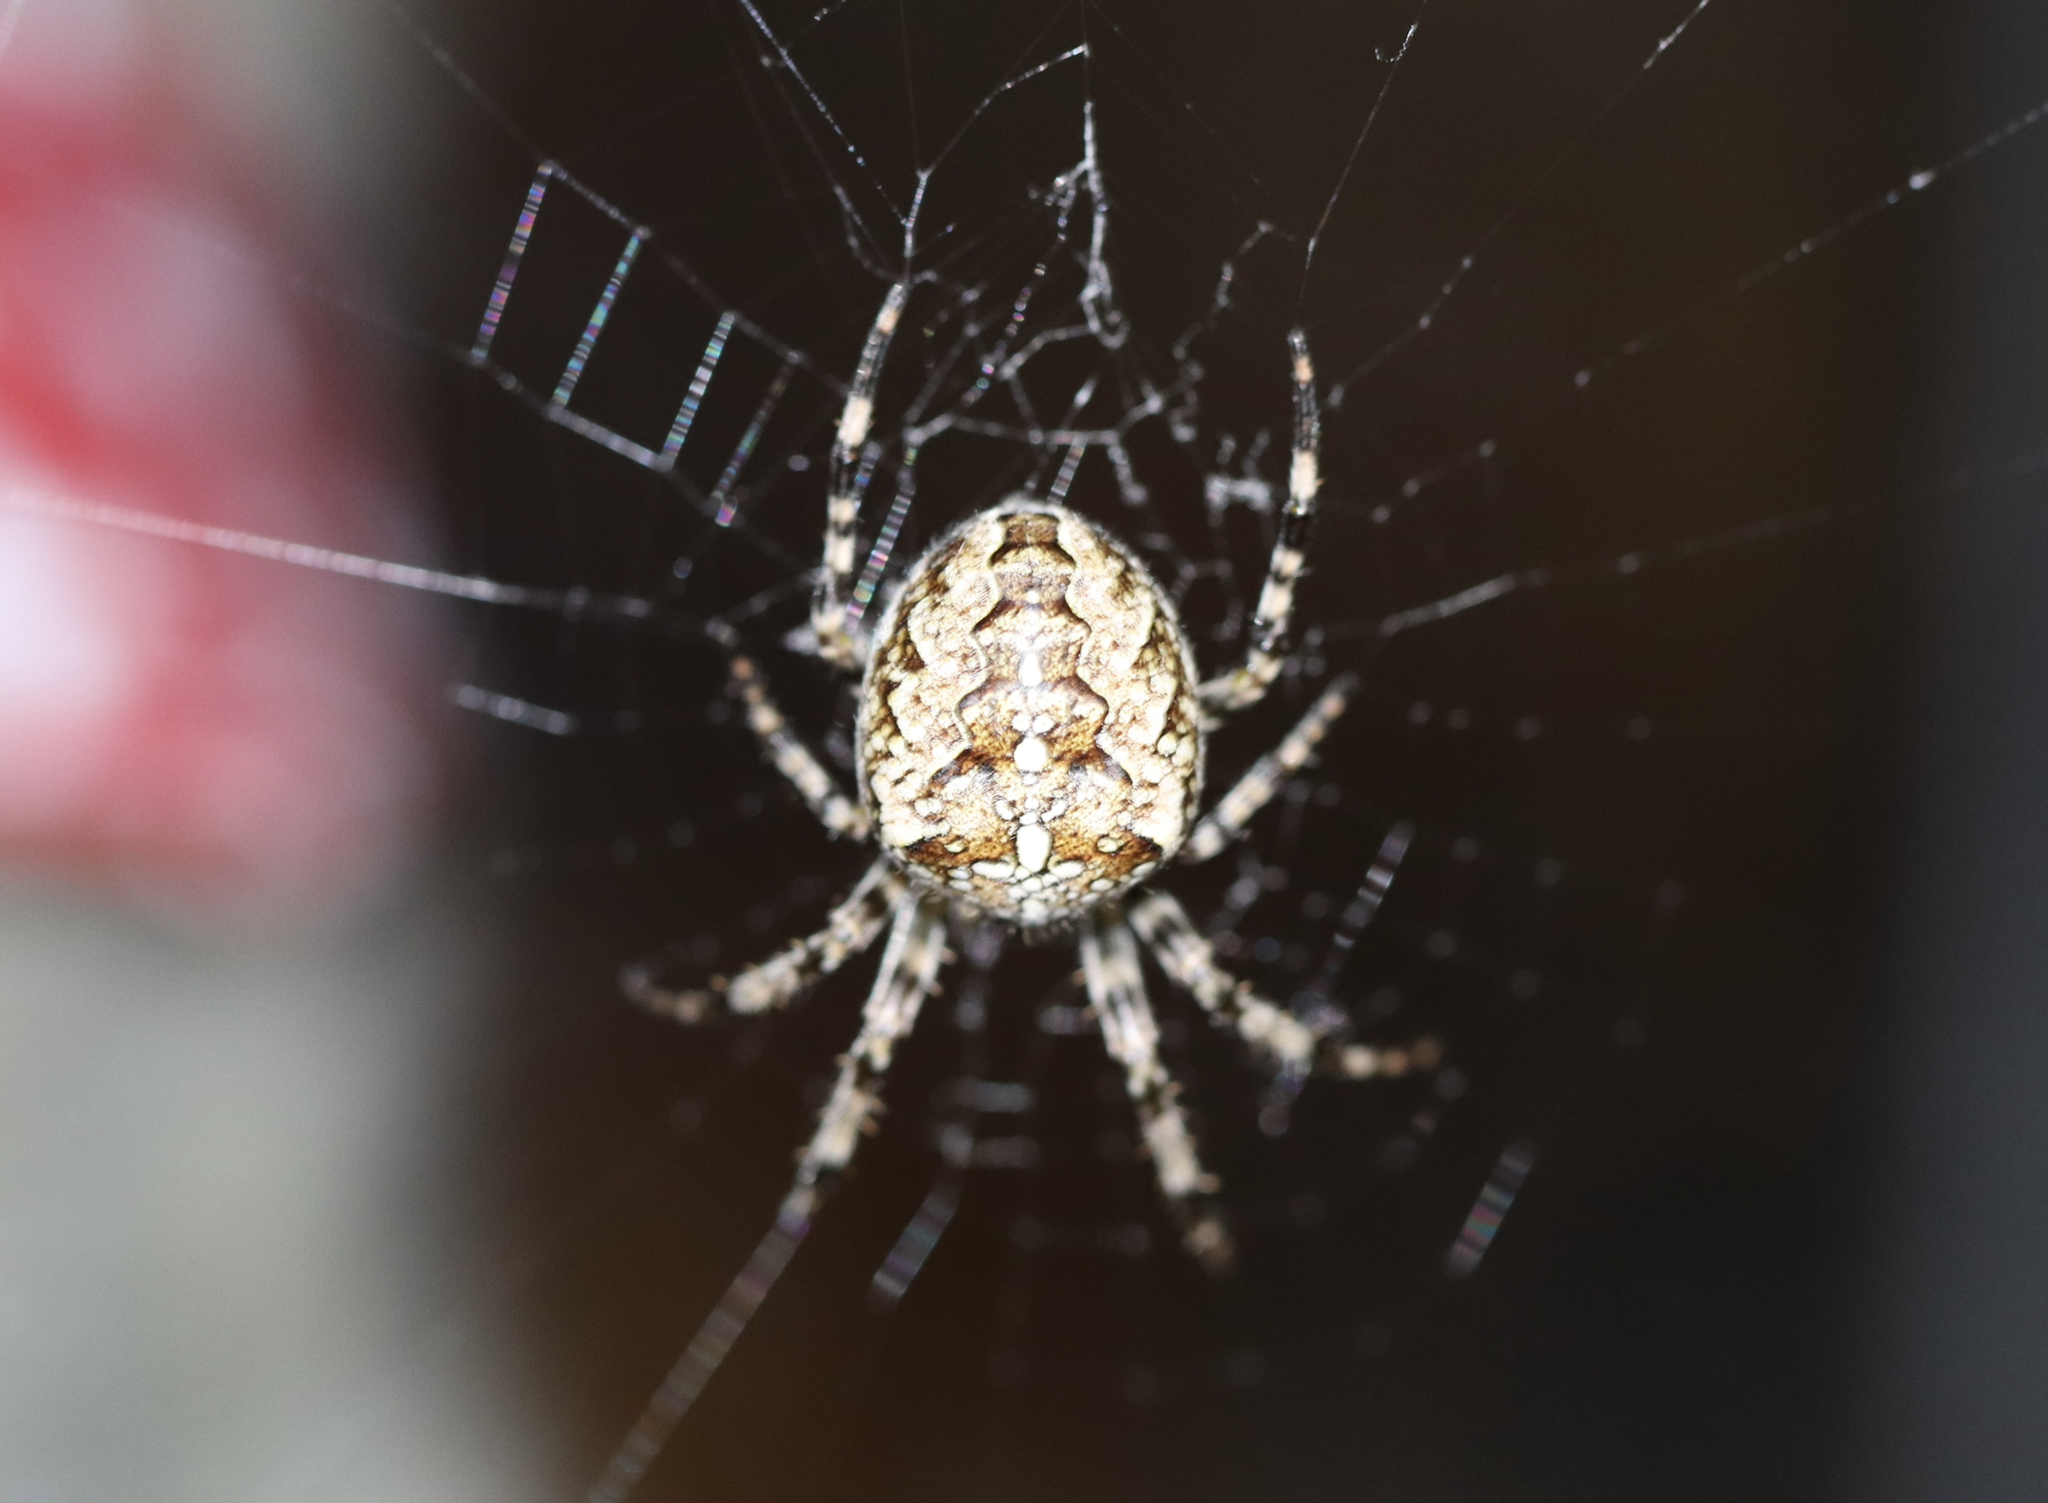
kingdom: Animalia
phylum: Arthropoda
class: Arachnida
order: Araneae
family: Araneidae
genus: Araneus
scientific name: Araneus diadematus
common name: Cross orbweaver
